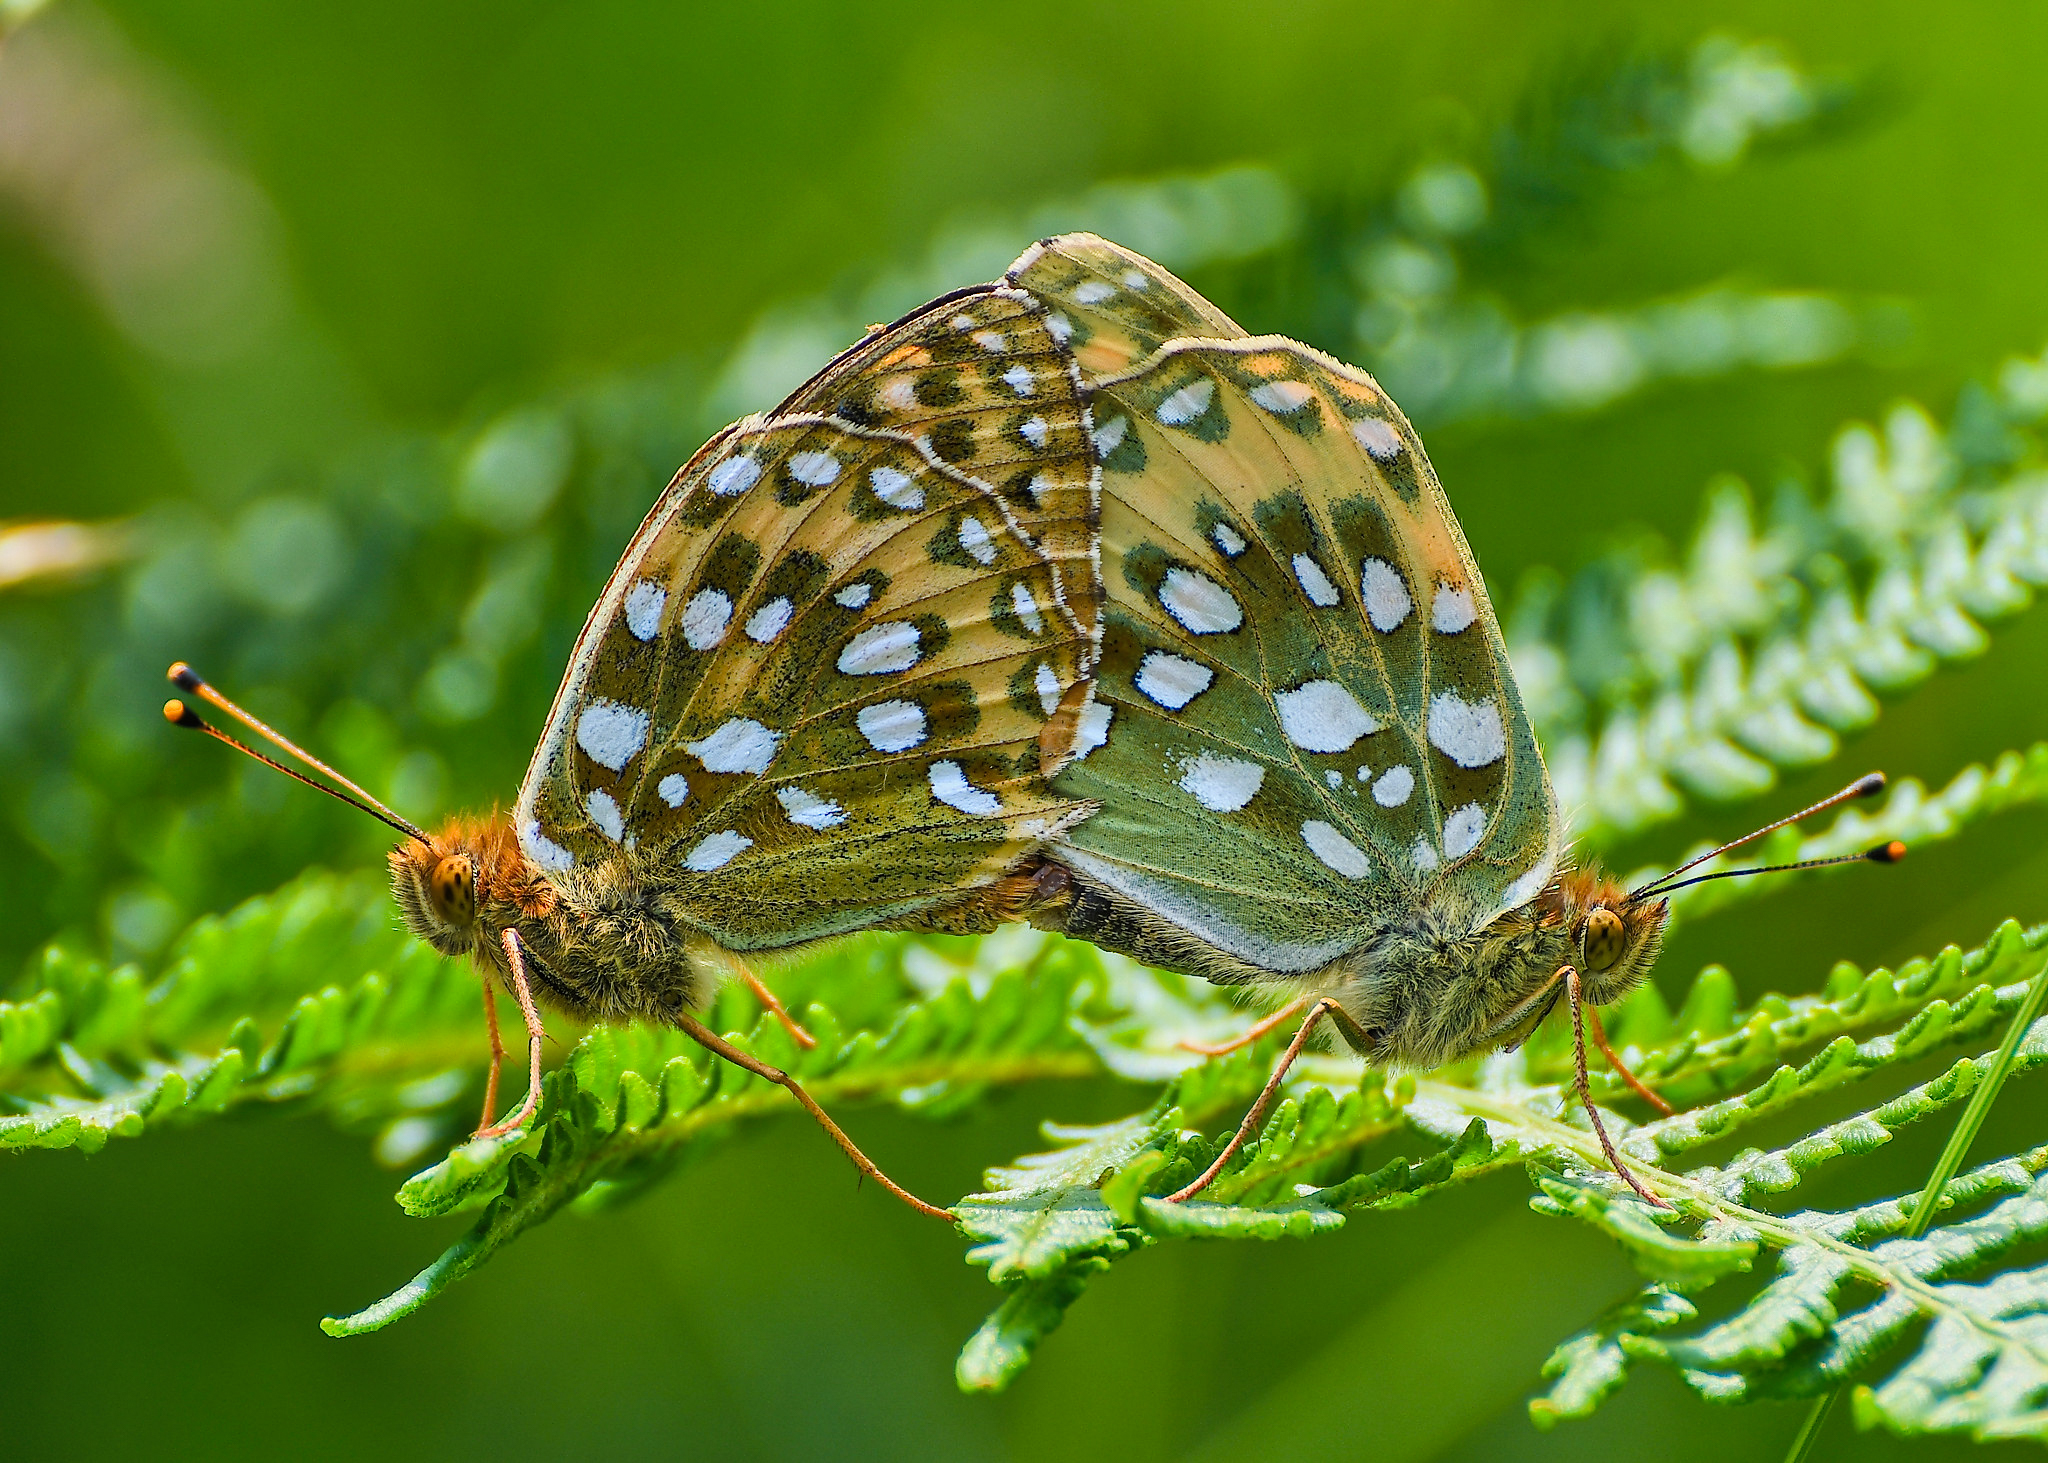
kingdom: Animalia
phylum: Arthropoda
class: Insecta
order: Lepidoptera
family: Nymphalidae
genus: Speyeria
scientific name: Speyeria aglaja
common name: Dark green fritillary
